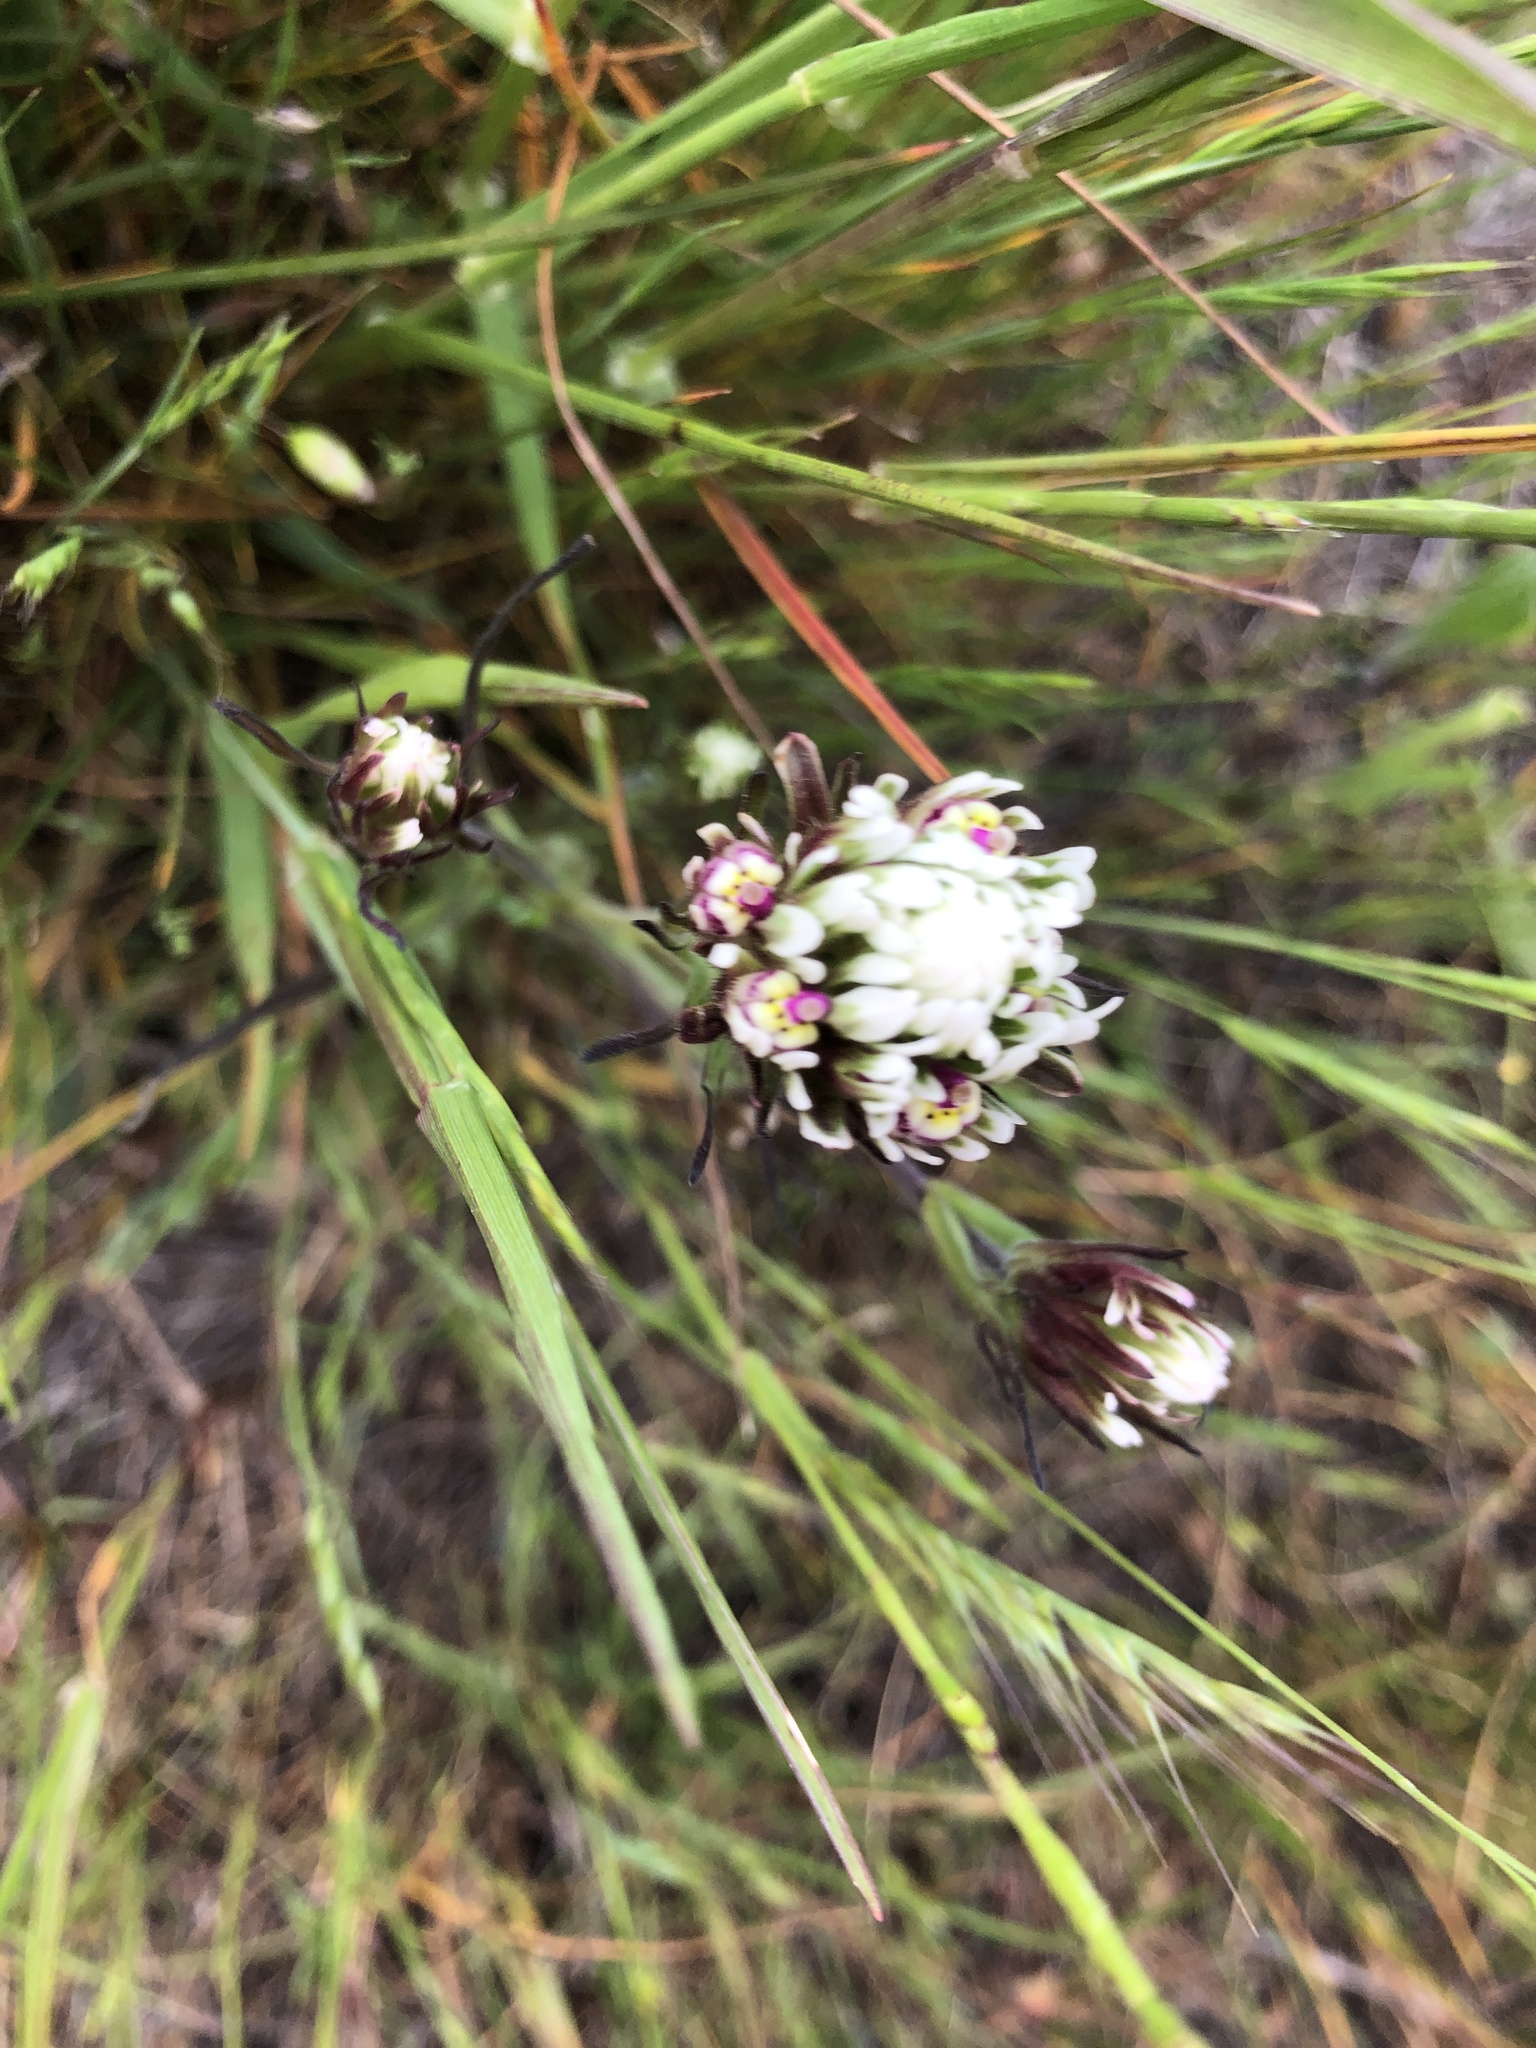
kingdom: Plantae
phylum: Tracheophyta
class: Magnoliopsida
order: Lamiales
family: Orobanchaceae
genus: Castilleja
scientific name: Castilleja densiflora
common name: Dense-flower indian paintbrush
